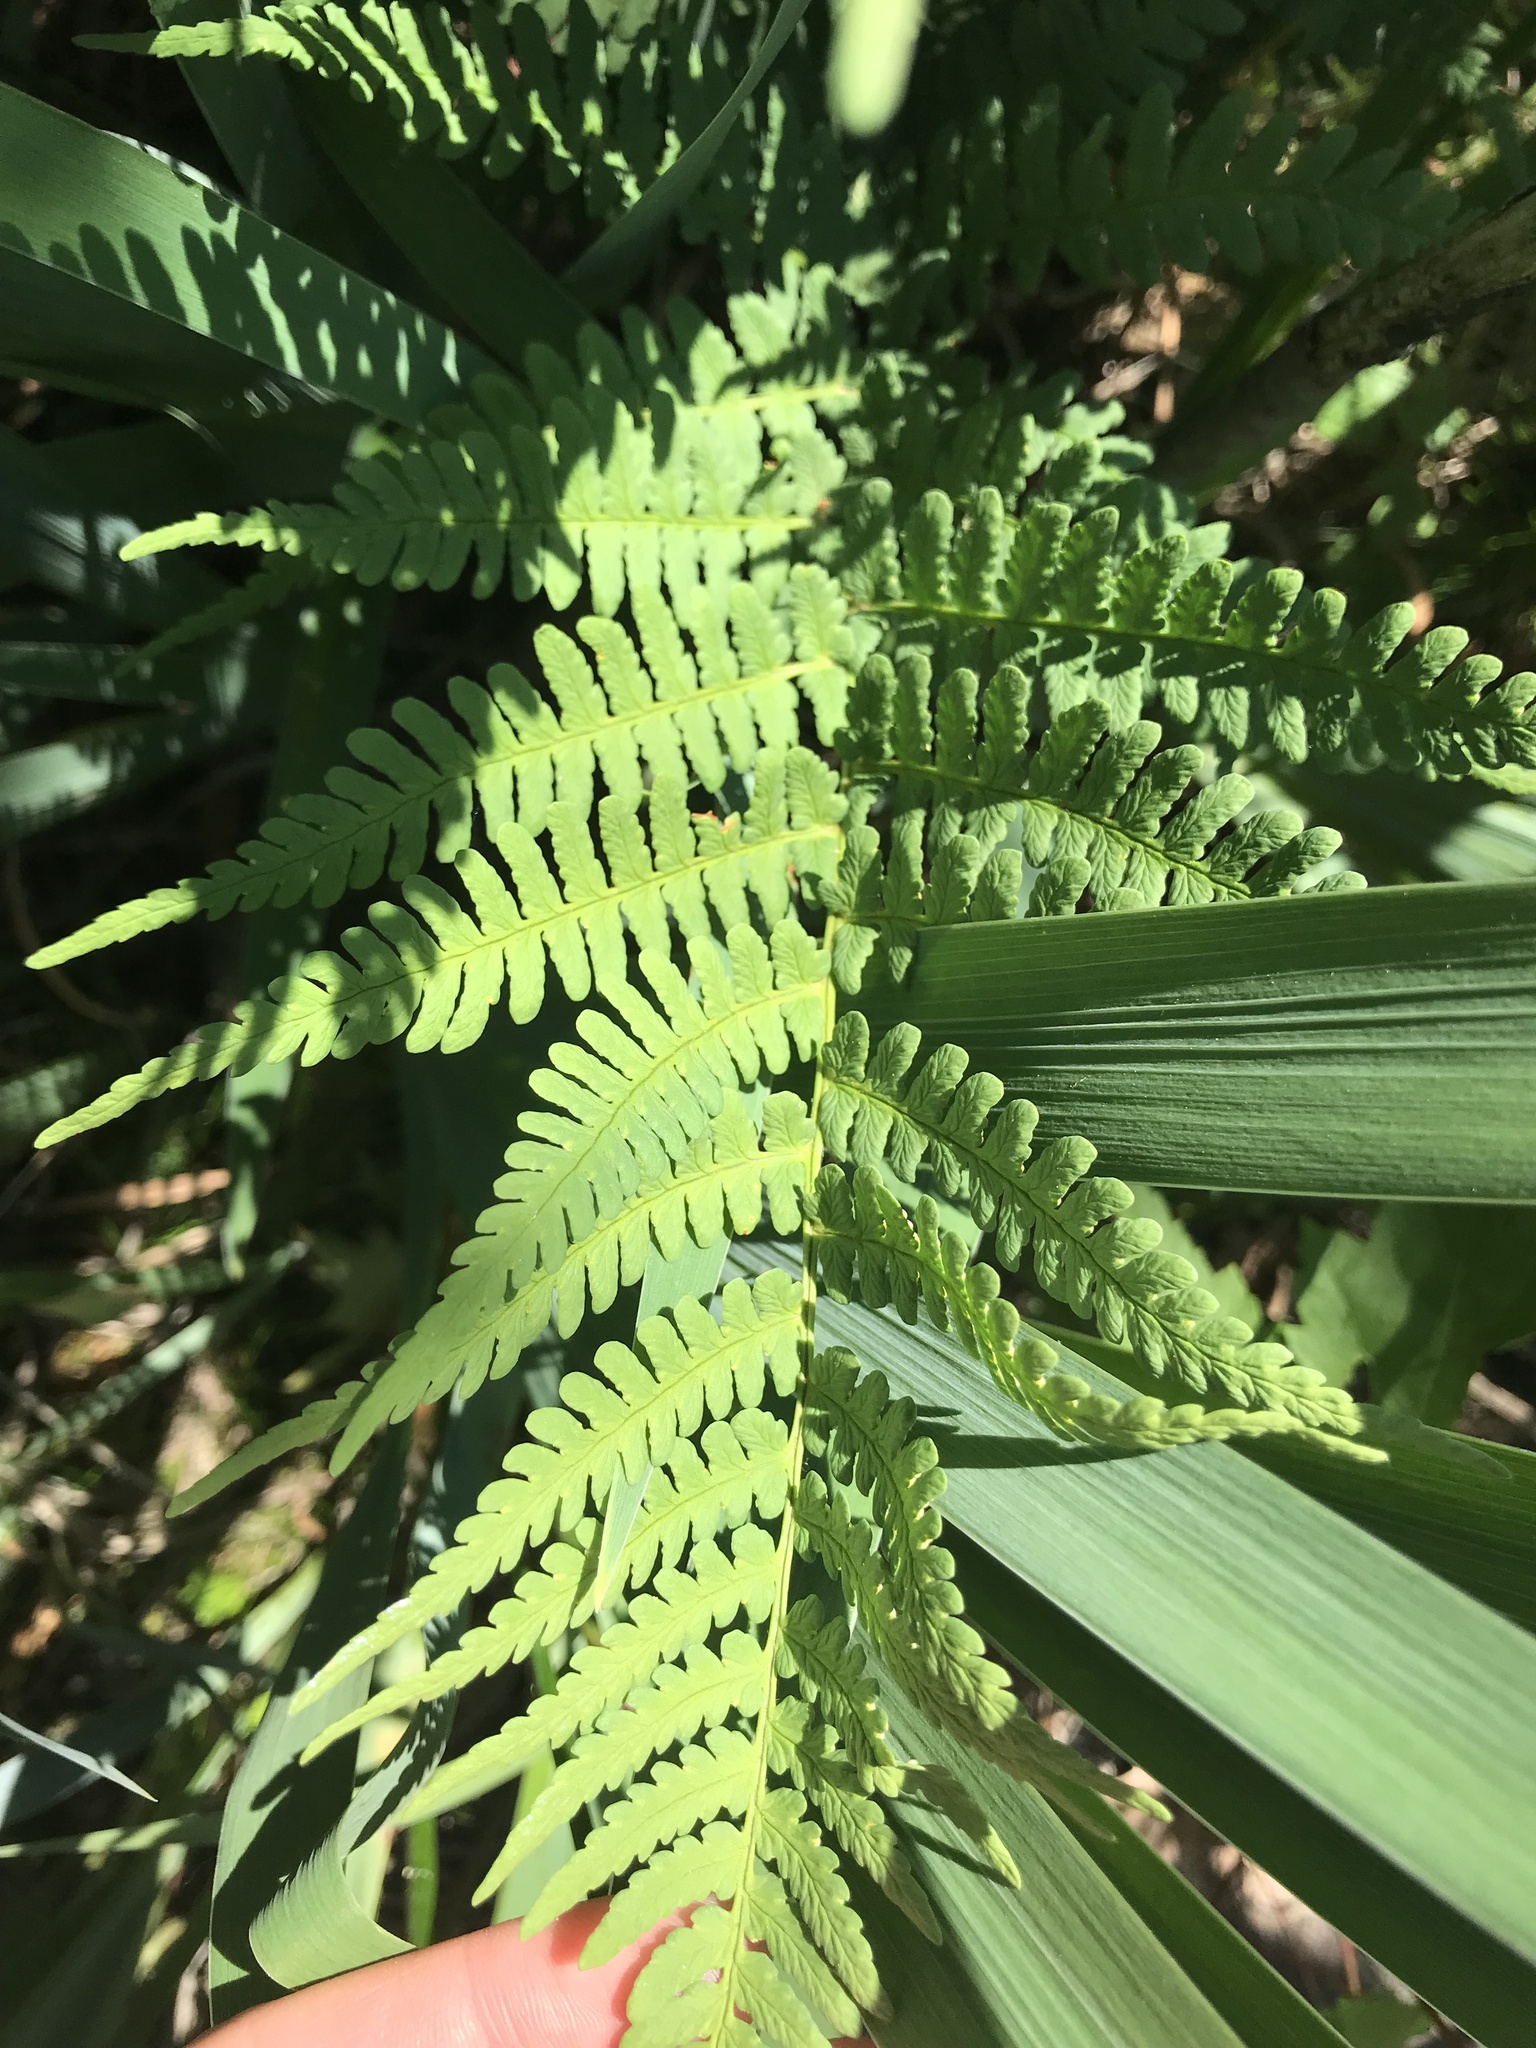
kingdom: Plantae
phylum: Tracheophyta
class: Polypodiopsida
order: Polypodiales
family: Dryopteridaceae
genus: Dryopteris
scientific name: Dryopteris marginalis
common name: Marginal wood fern
